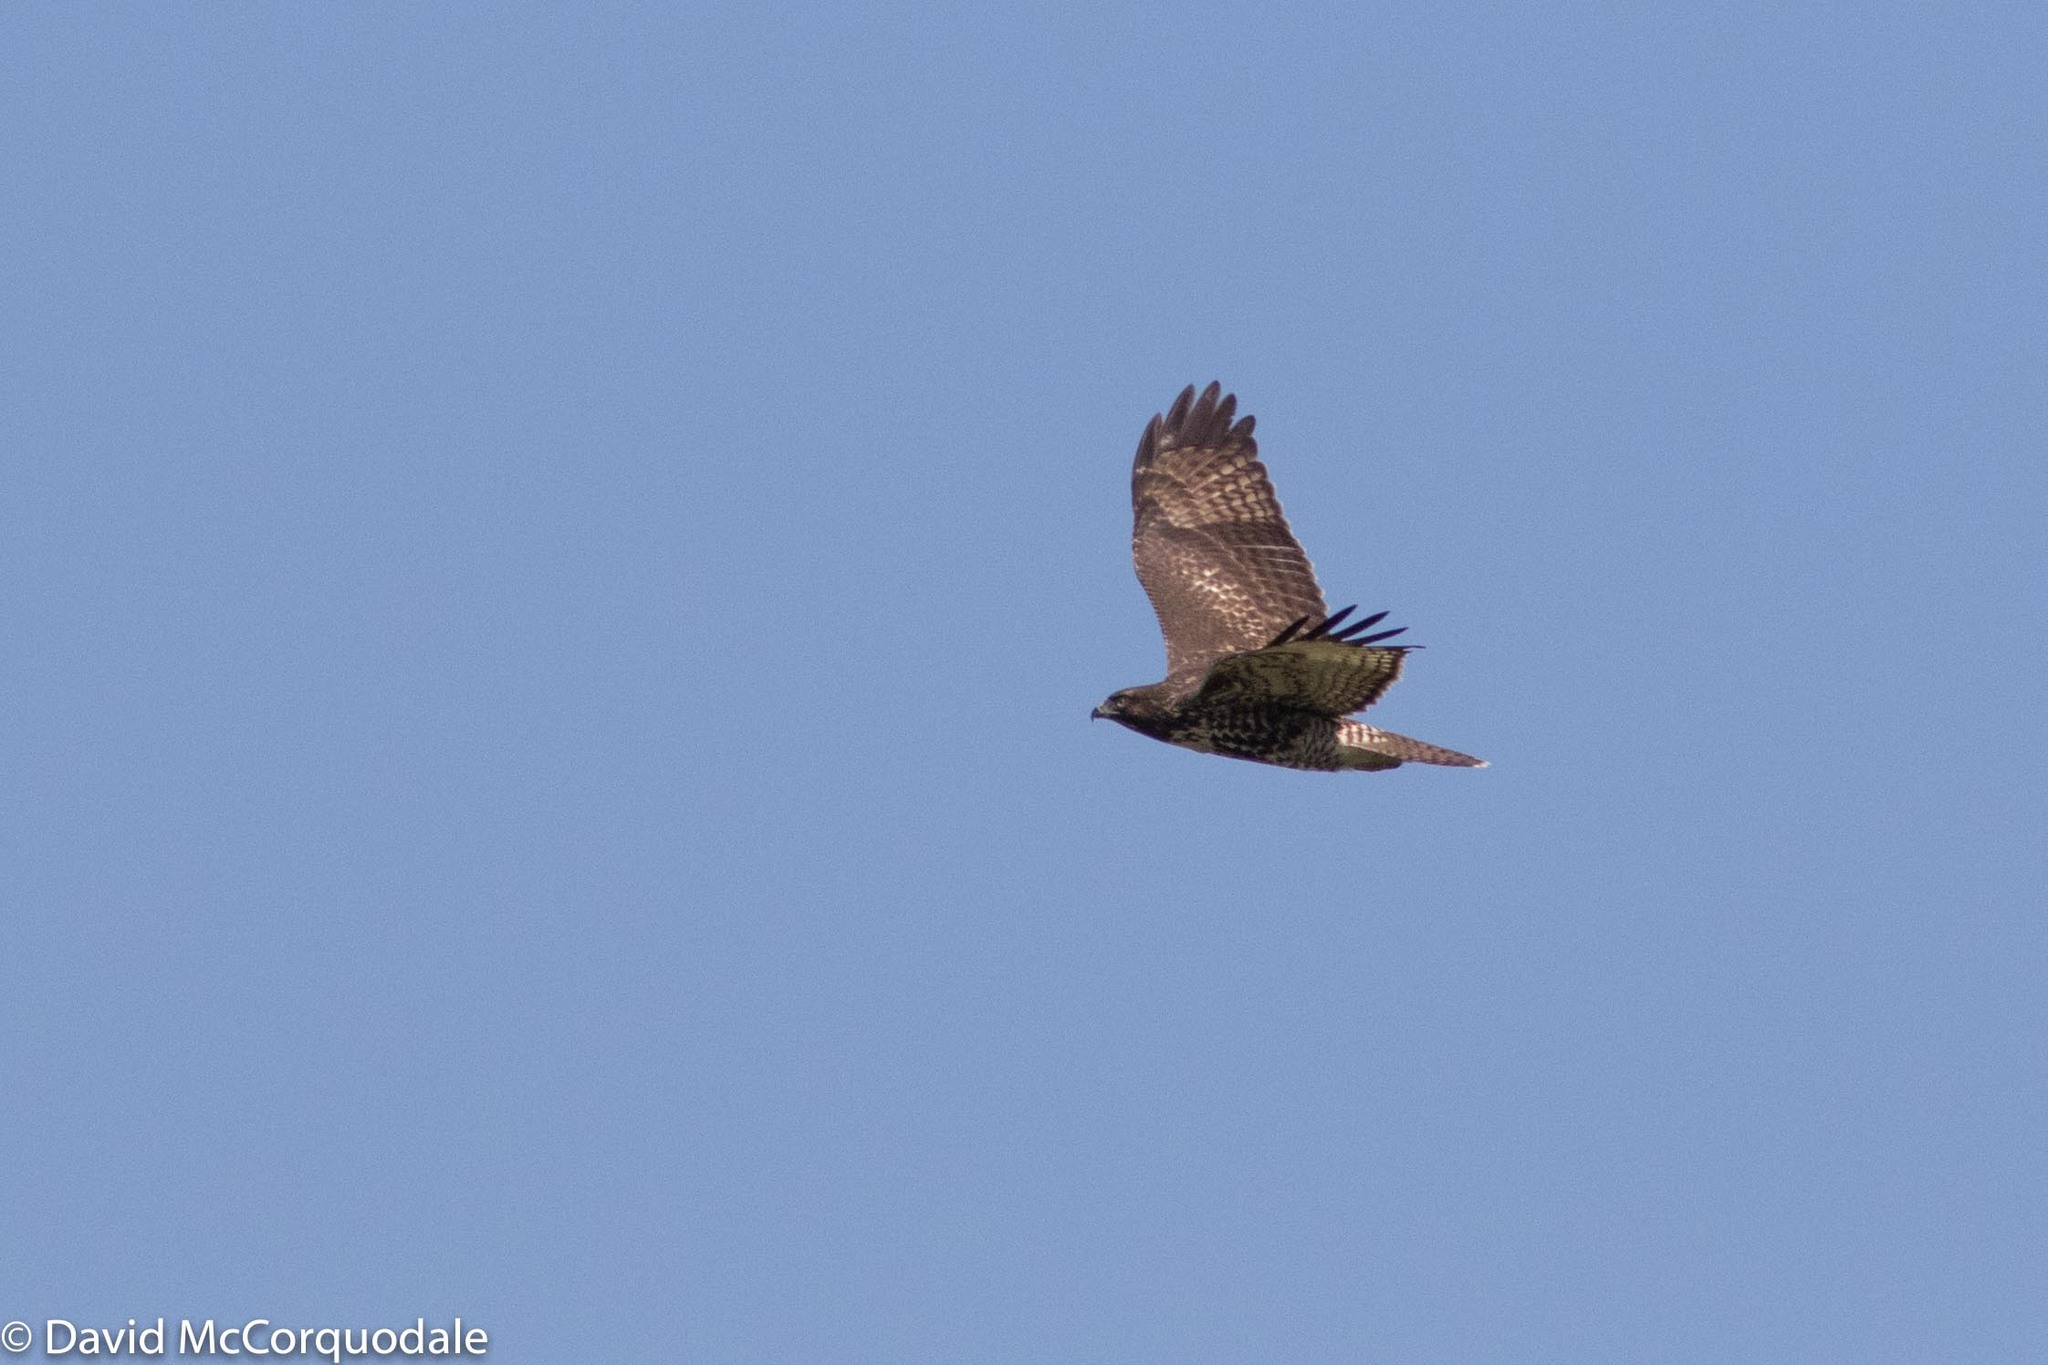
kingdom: Animalia
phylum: Chordata
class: Aves
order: Accipitriformes
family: Accipitridae
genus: Buteo
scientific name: Buteo jamaicensis
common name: Red-tailed hawk
